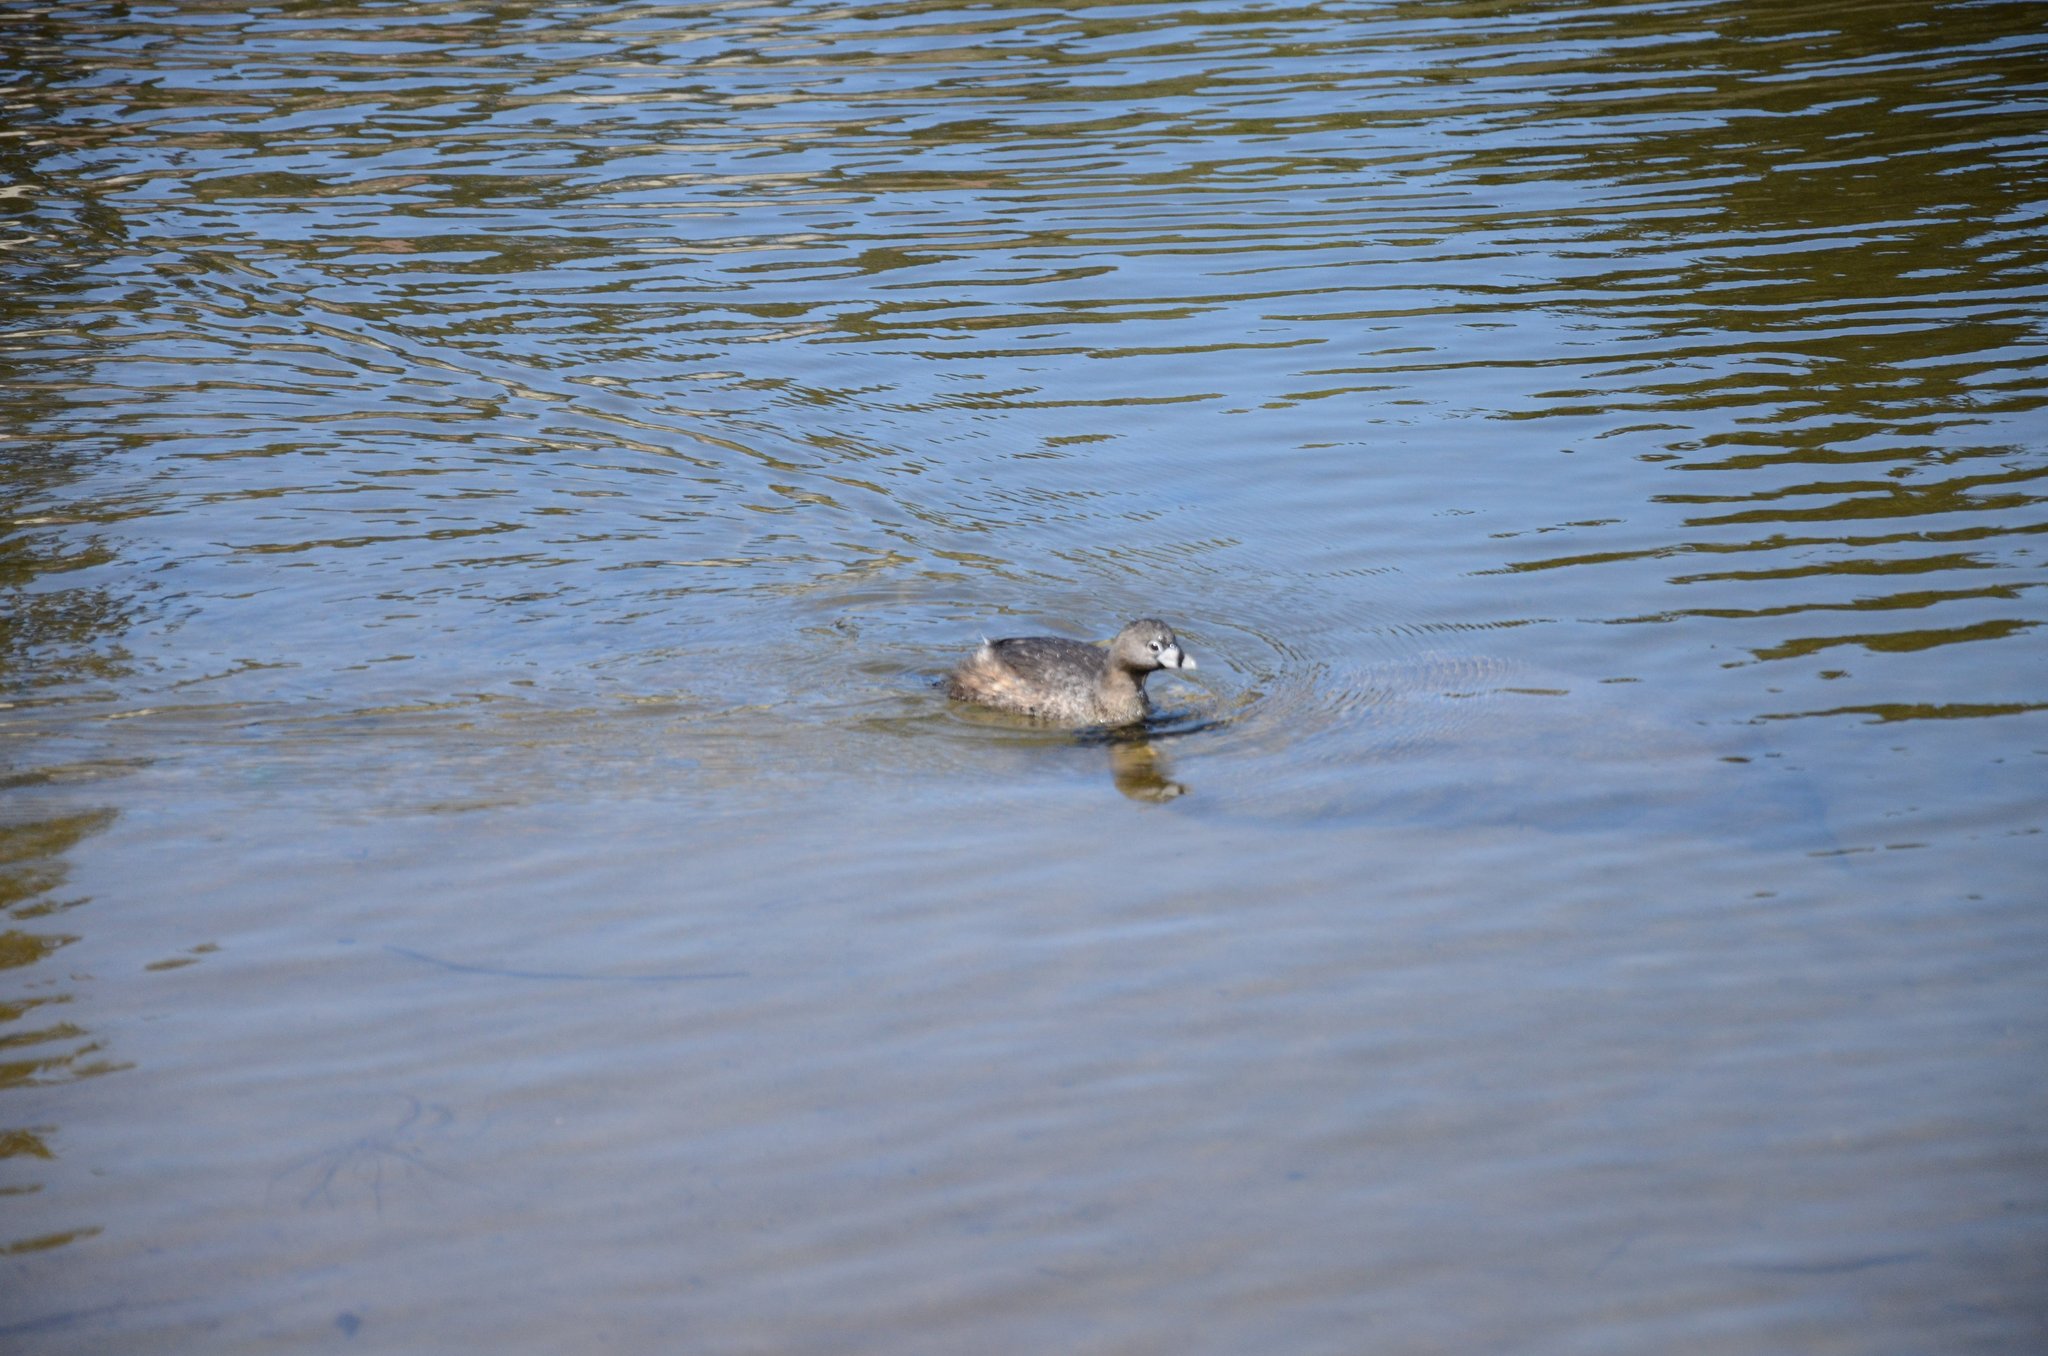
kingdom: Animalia
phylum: Chordata
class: Aves
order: Podicipediformes
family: Podicipedidae
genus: Podilymbus
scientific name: Podilymbus podiceps
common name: Pied-billed grebe
